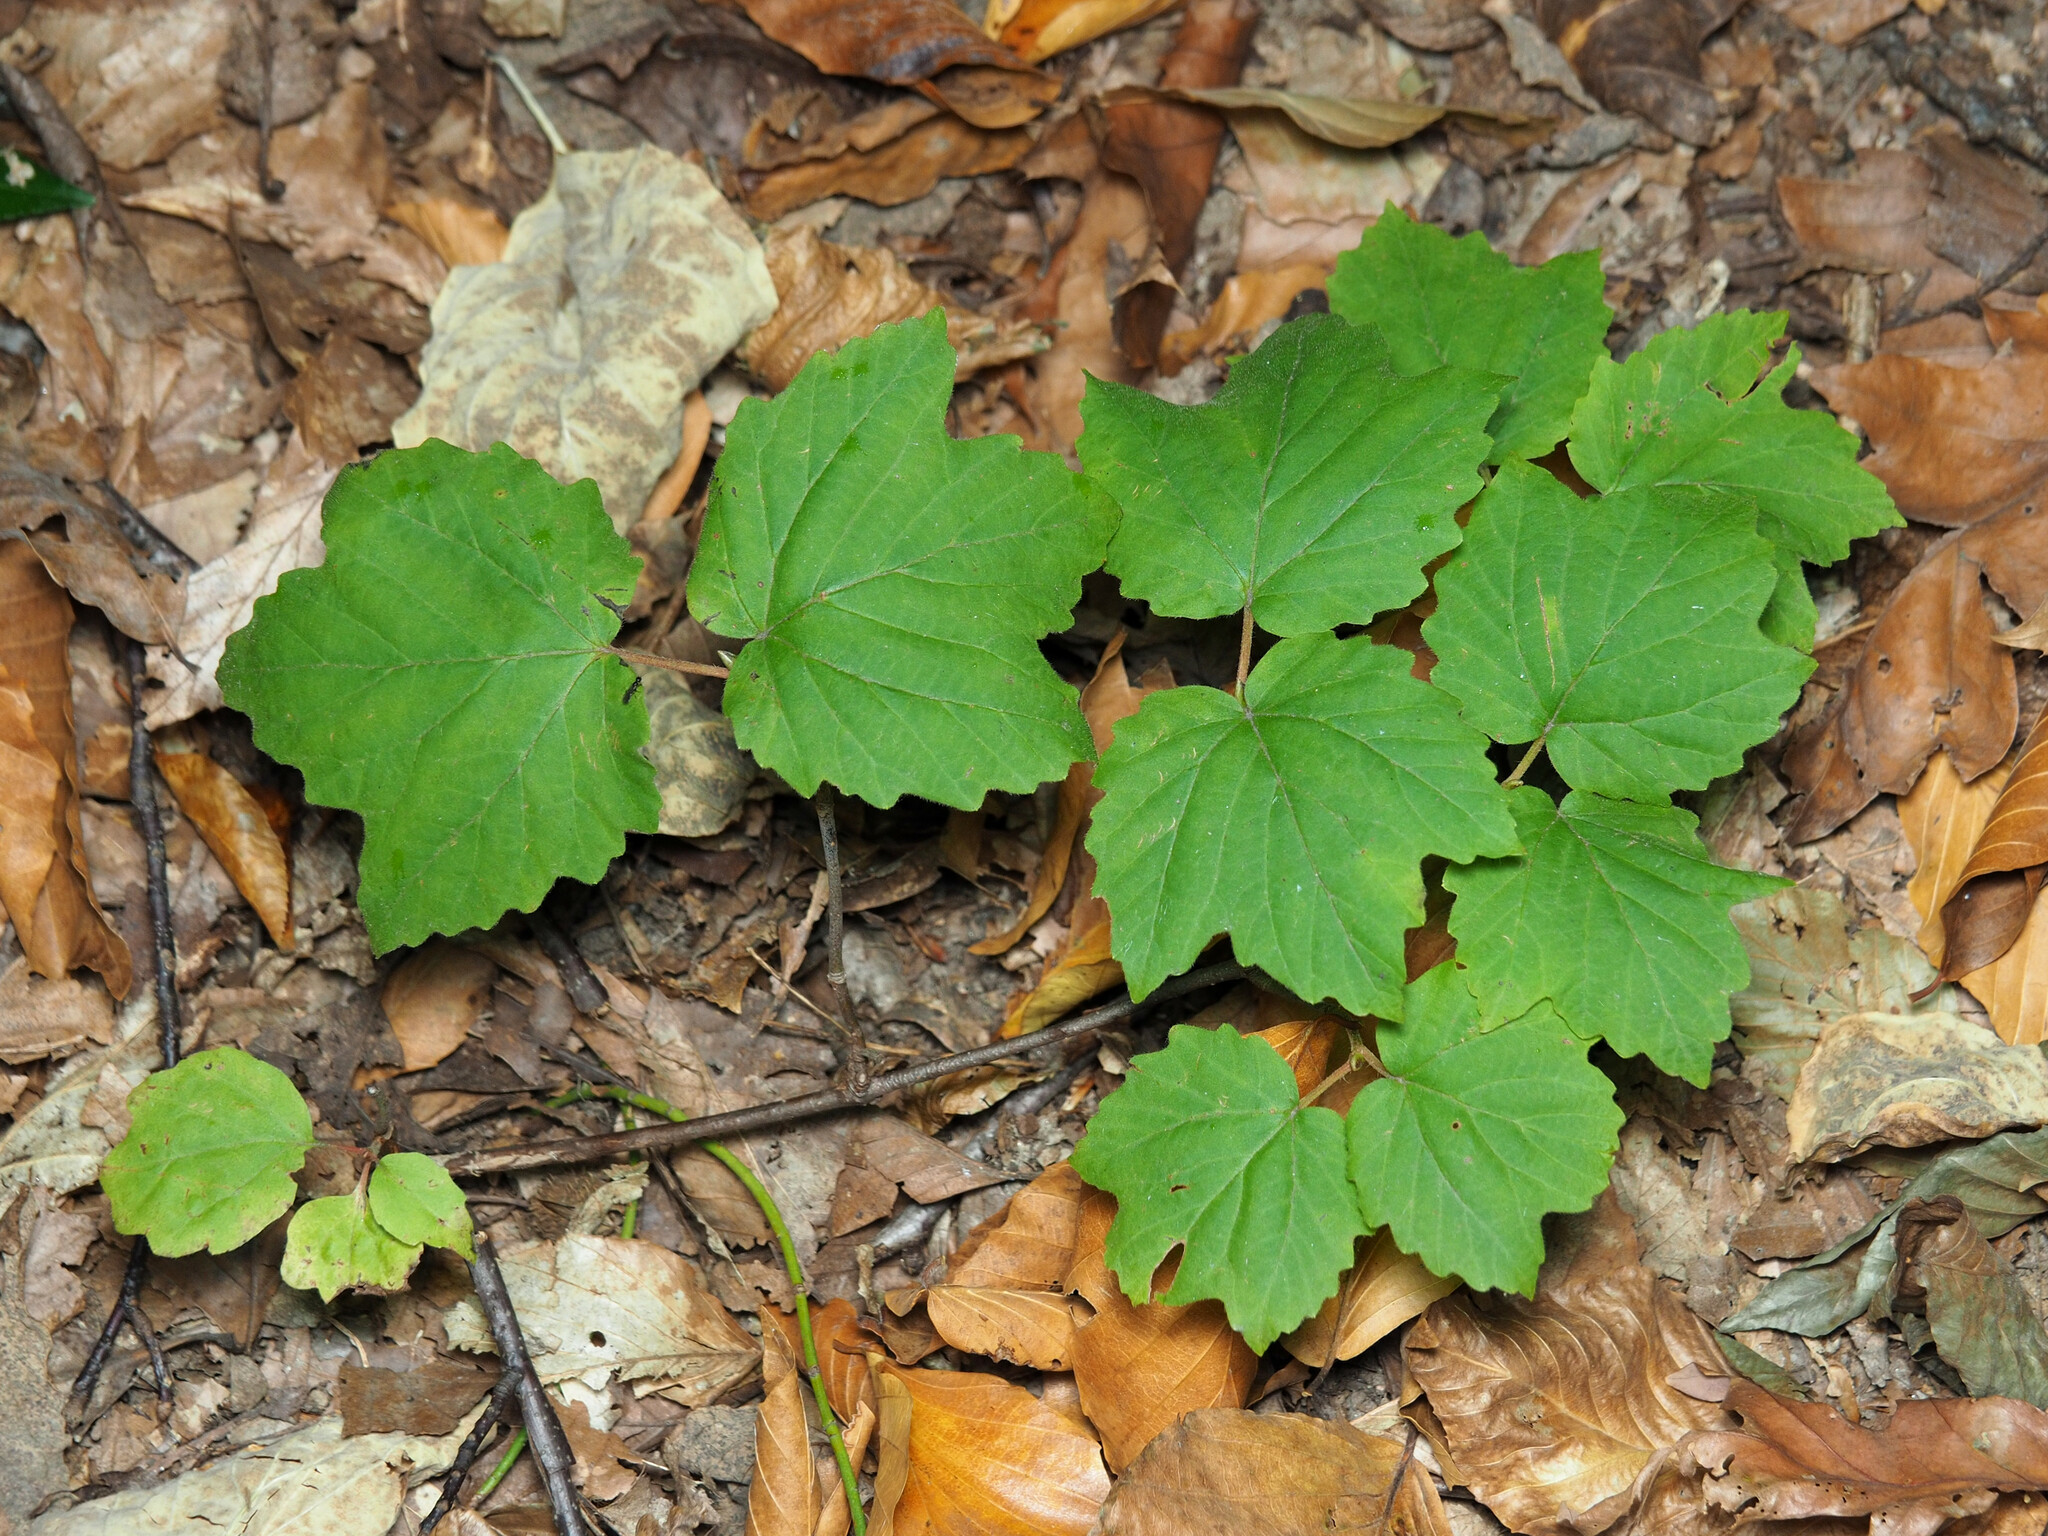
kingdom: Plantae
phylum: Tracheophyta
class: Magnoliopsida
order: Dipsacales
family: Viburnaceae
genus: Viburnum
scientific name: Viburnum acerifolium
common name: Dockmackie
